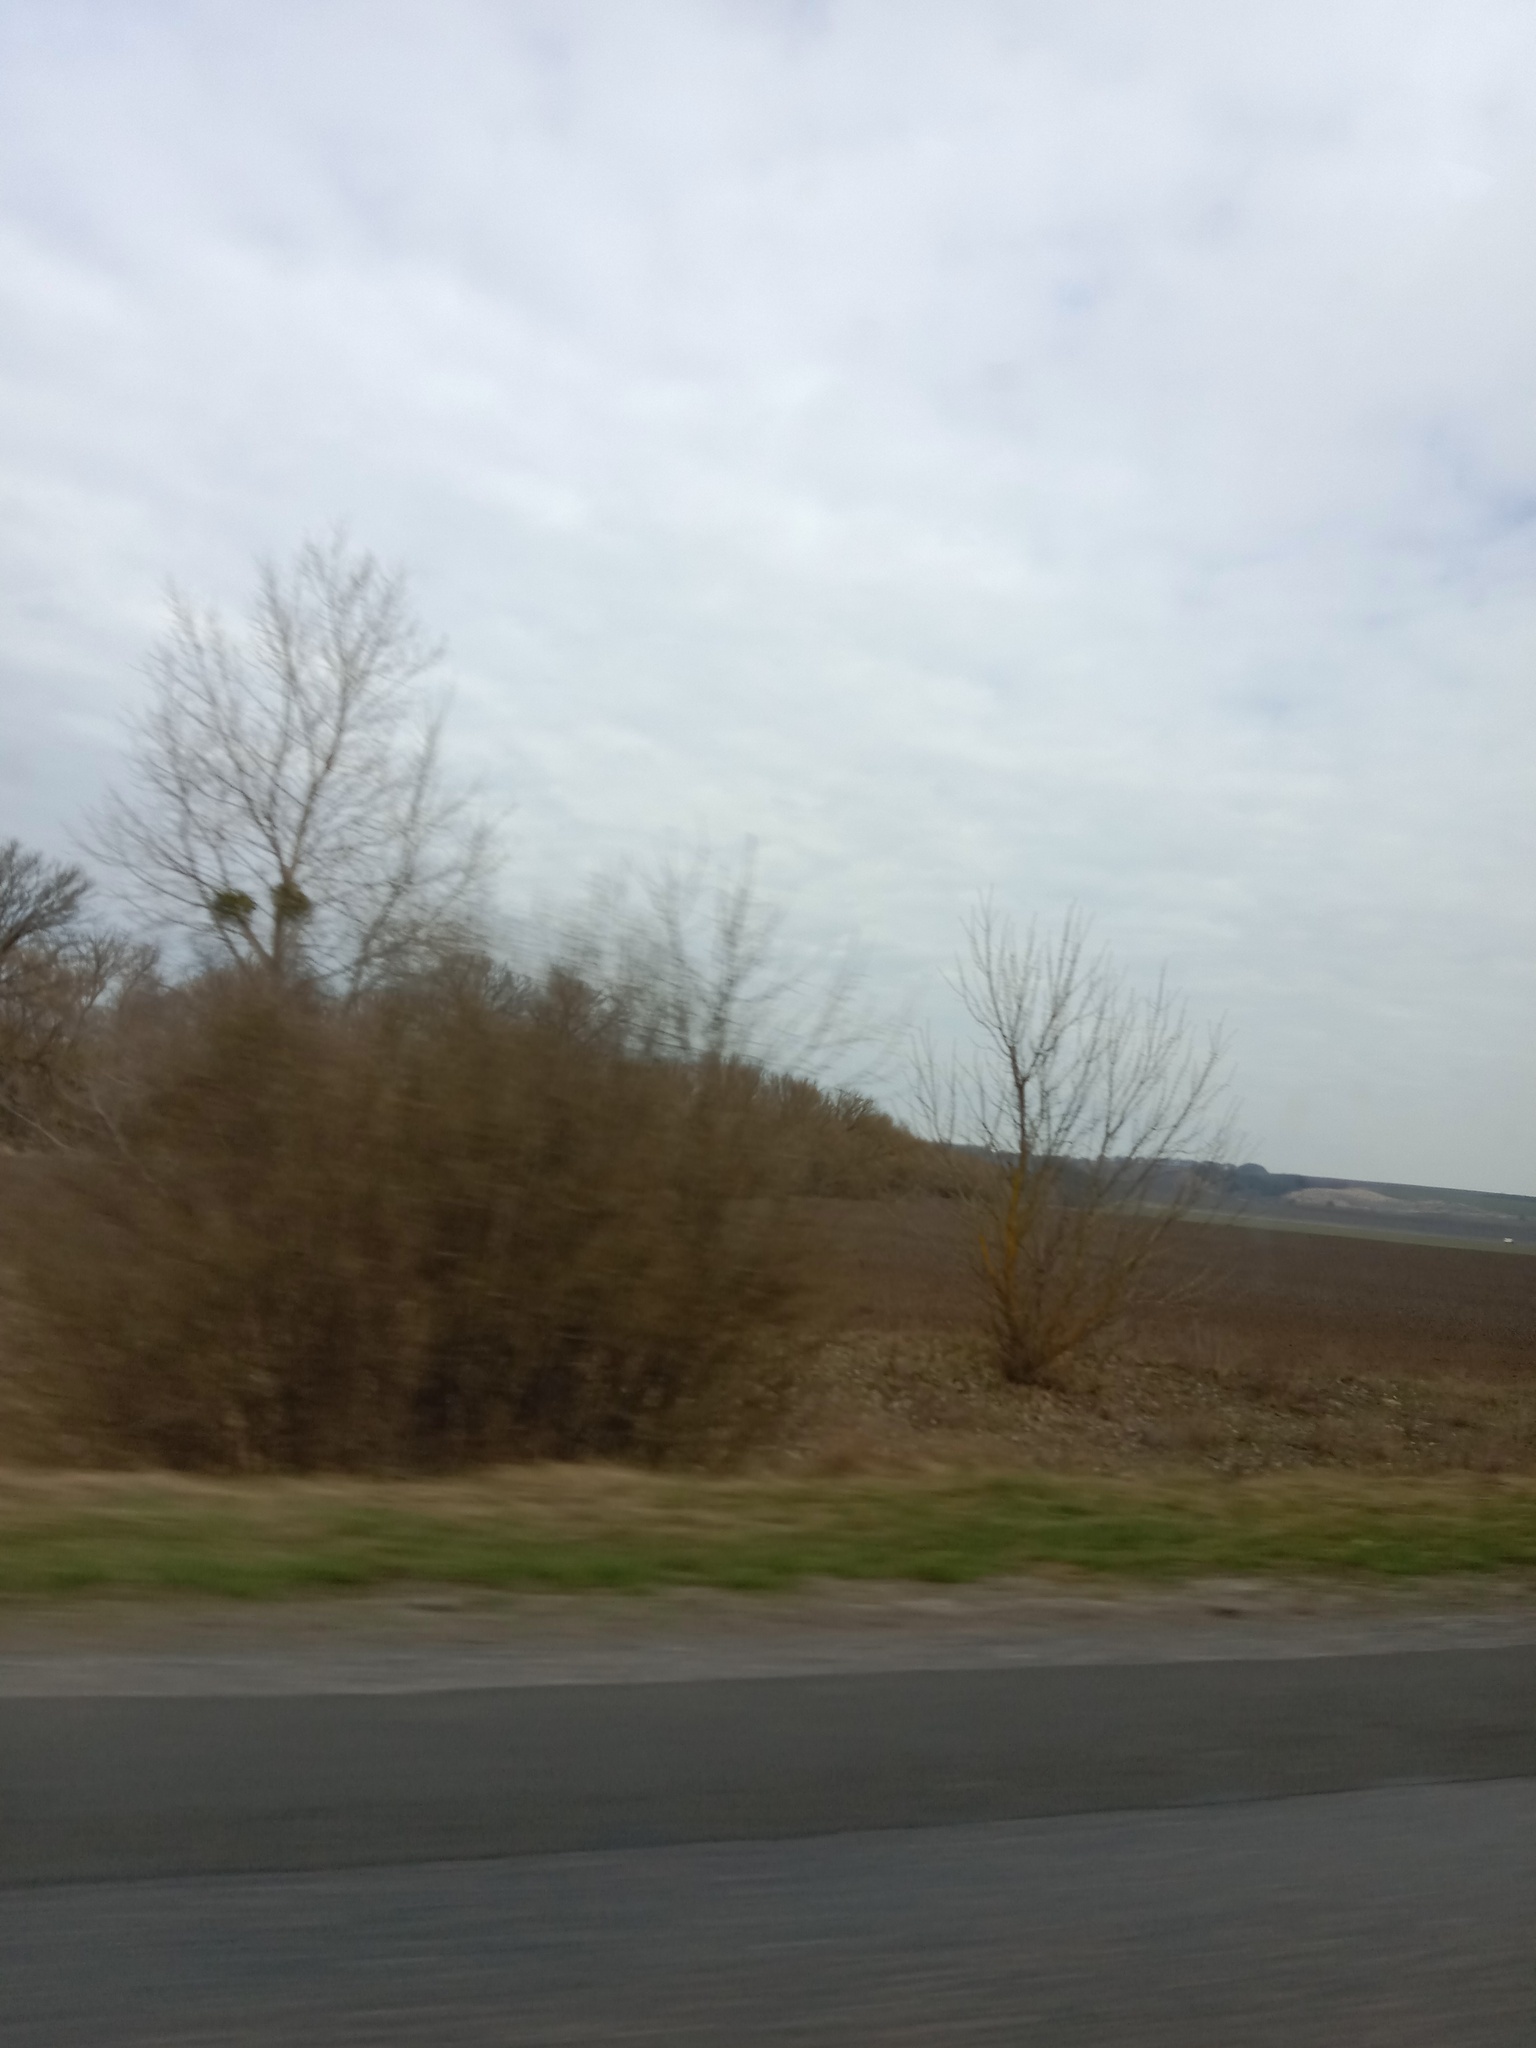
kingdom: Plantae
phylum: Tracheophyta
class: Magnoliopsida
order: Santalales
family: Viscaceae
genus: Viscum
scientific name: Viscum album
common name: Mistletoe
